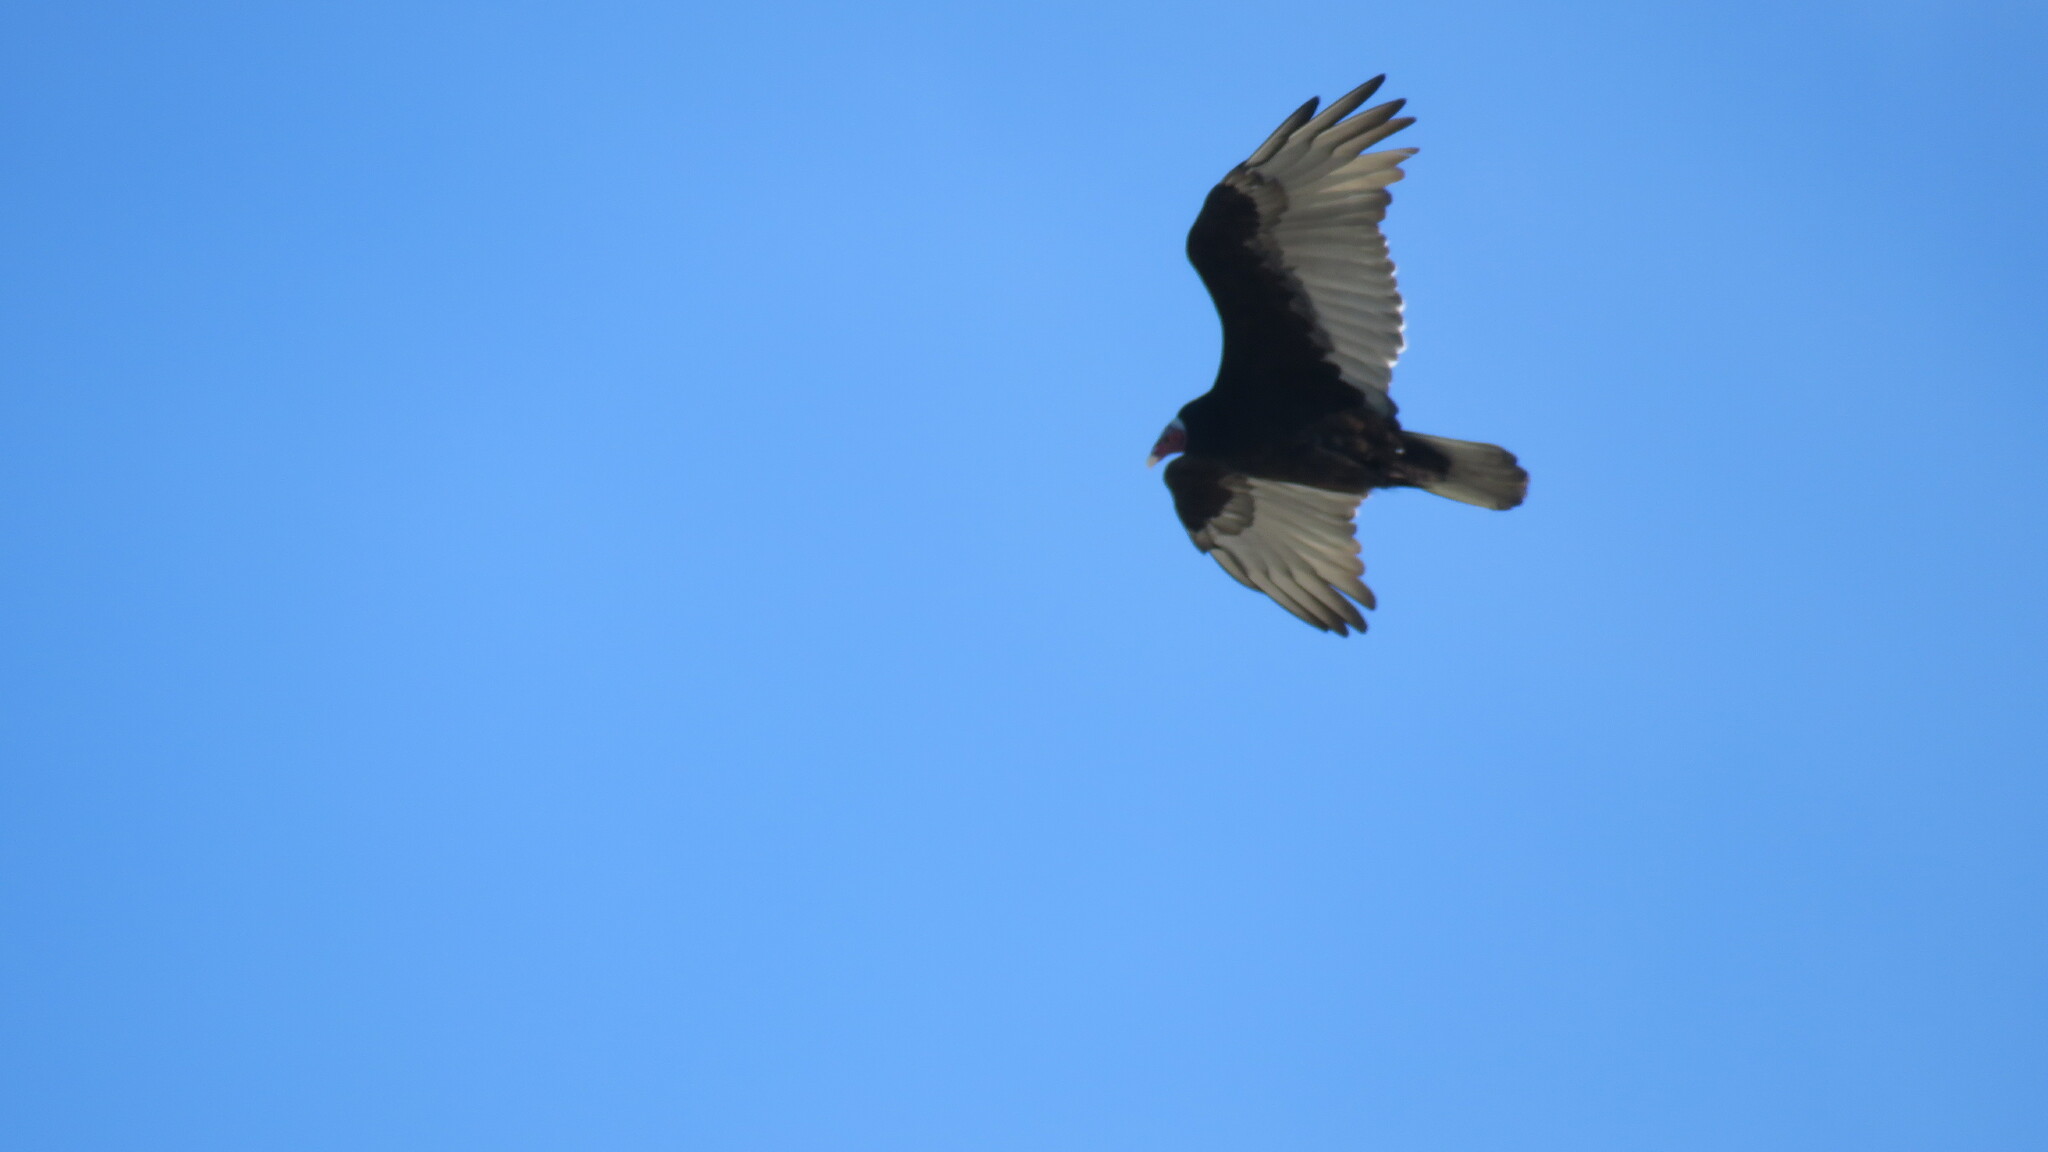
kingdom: Animalia
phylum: Chordata
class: Aves
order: Accipitriformes
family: Cathartidae
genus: Cathartes
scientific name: Cathartes aura
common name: Turkey vulture
